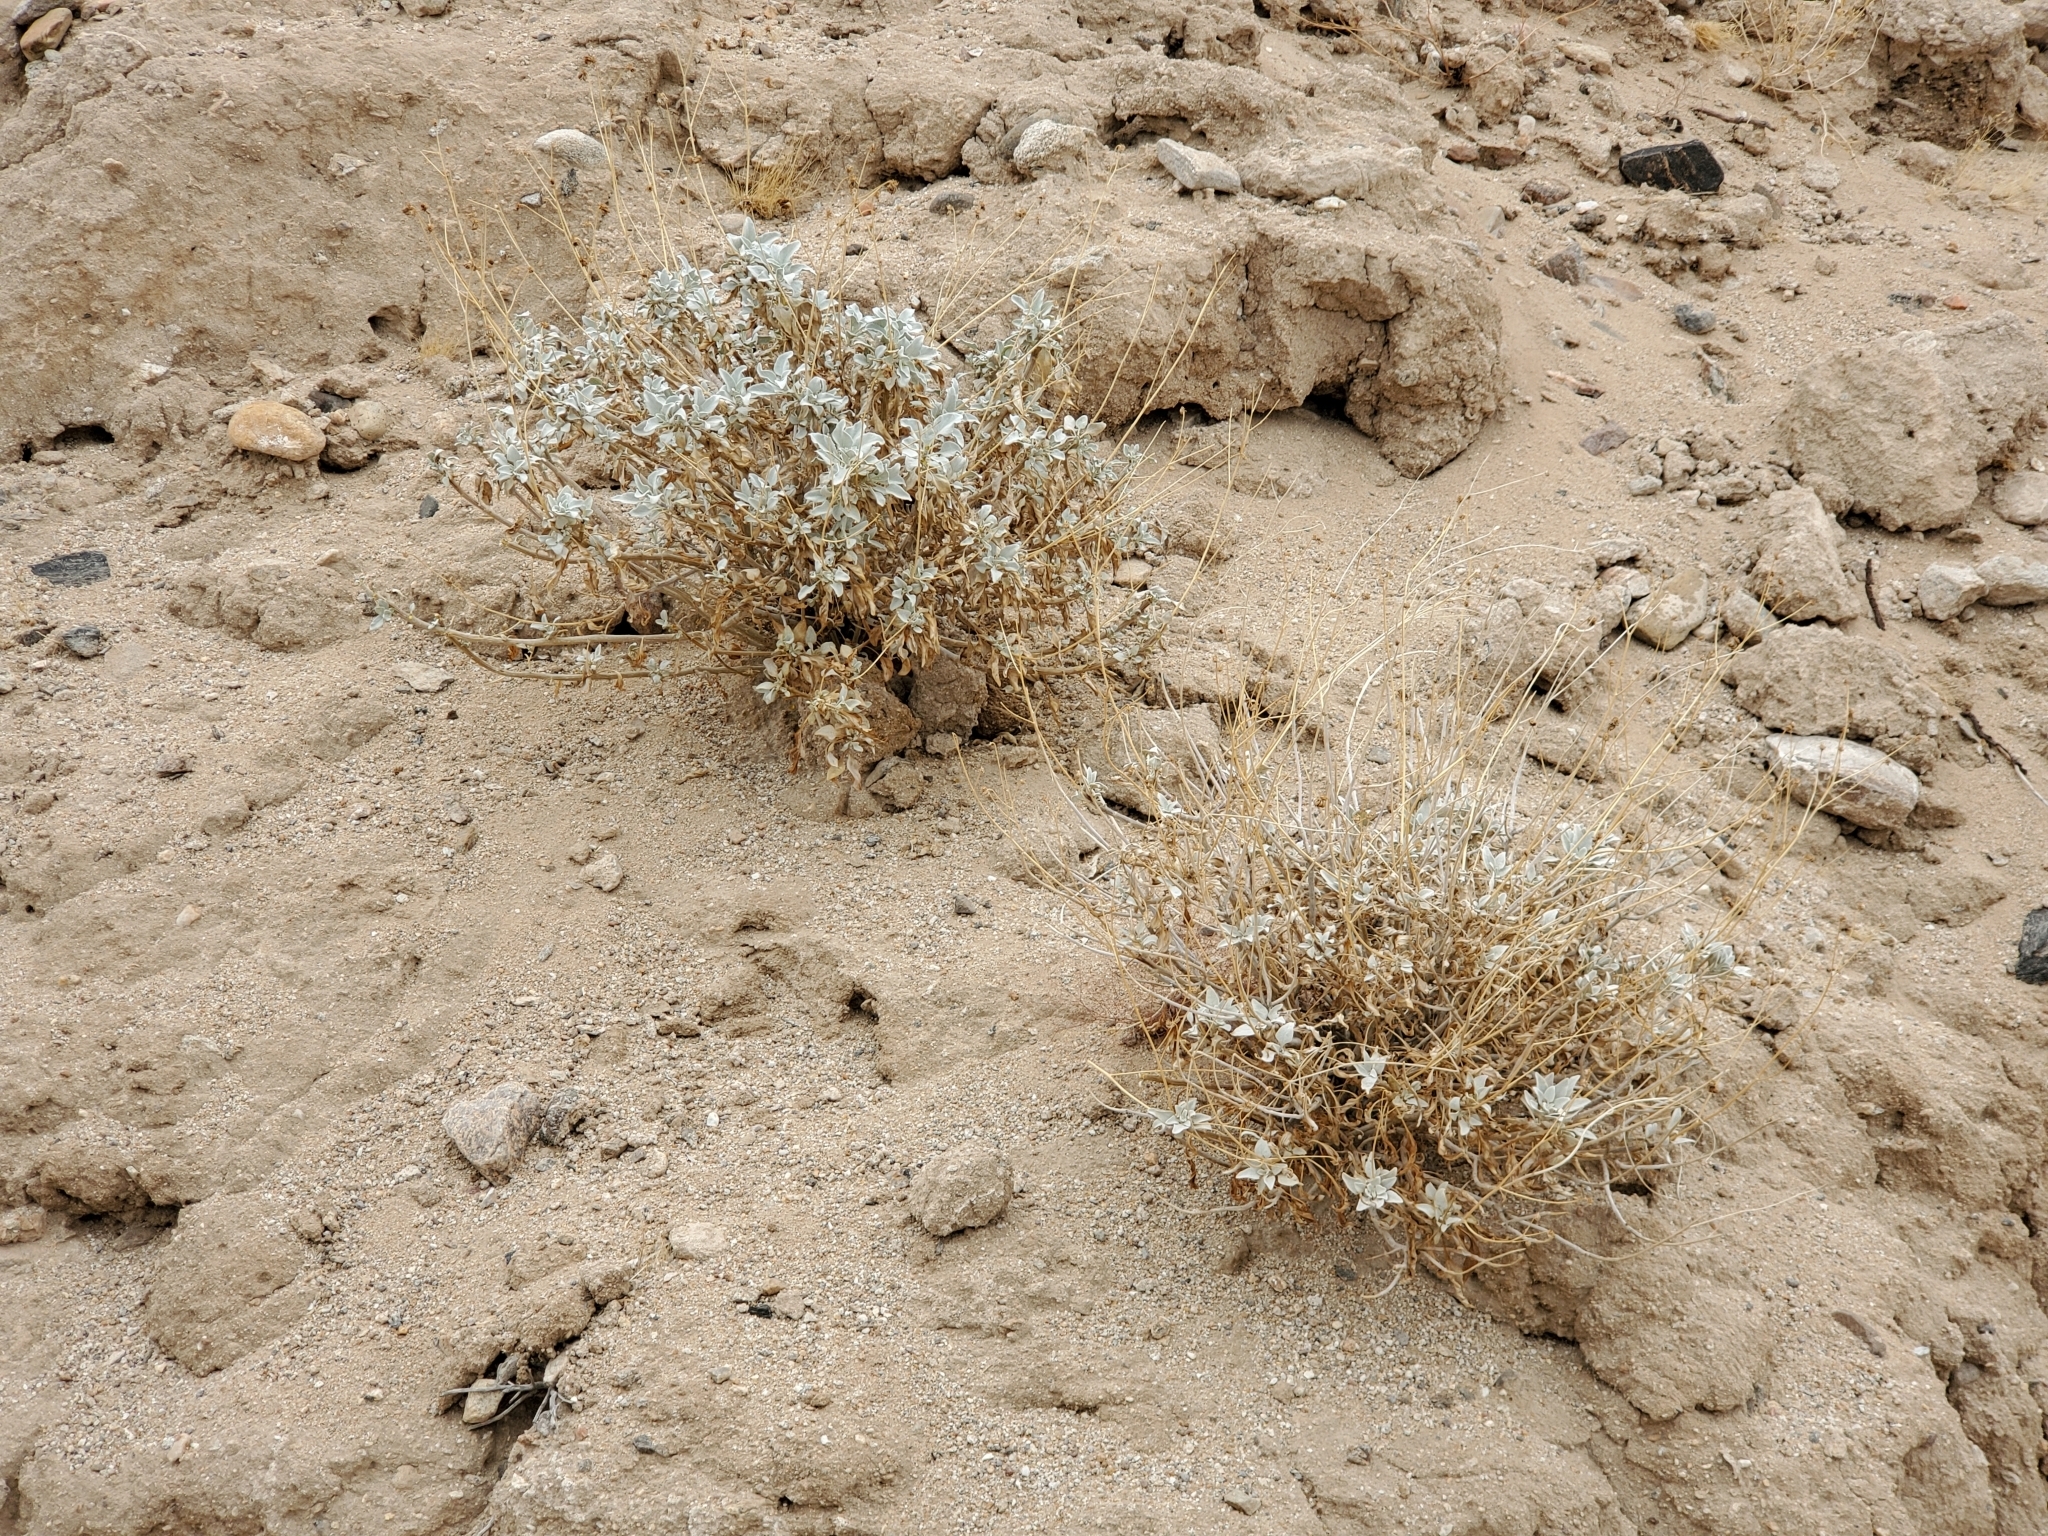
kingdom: Plantae
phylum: Tracheophyta
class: Magnoliopsida
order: Asterales
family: Asteraceae
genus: Encelia
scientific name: Encelia farinosa
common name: Brittlebush
